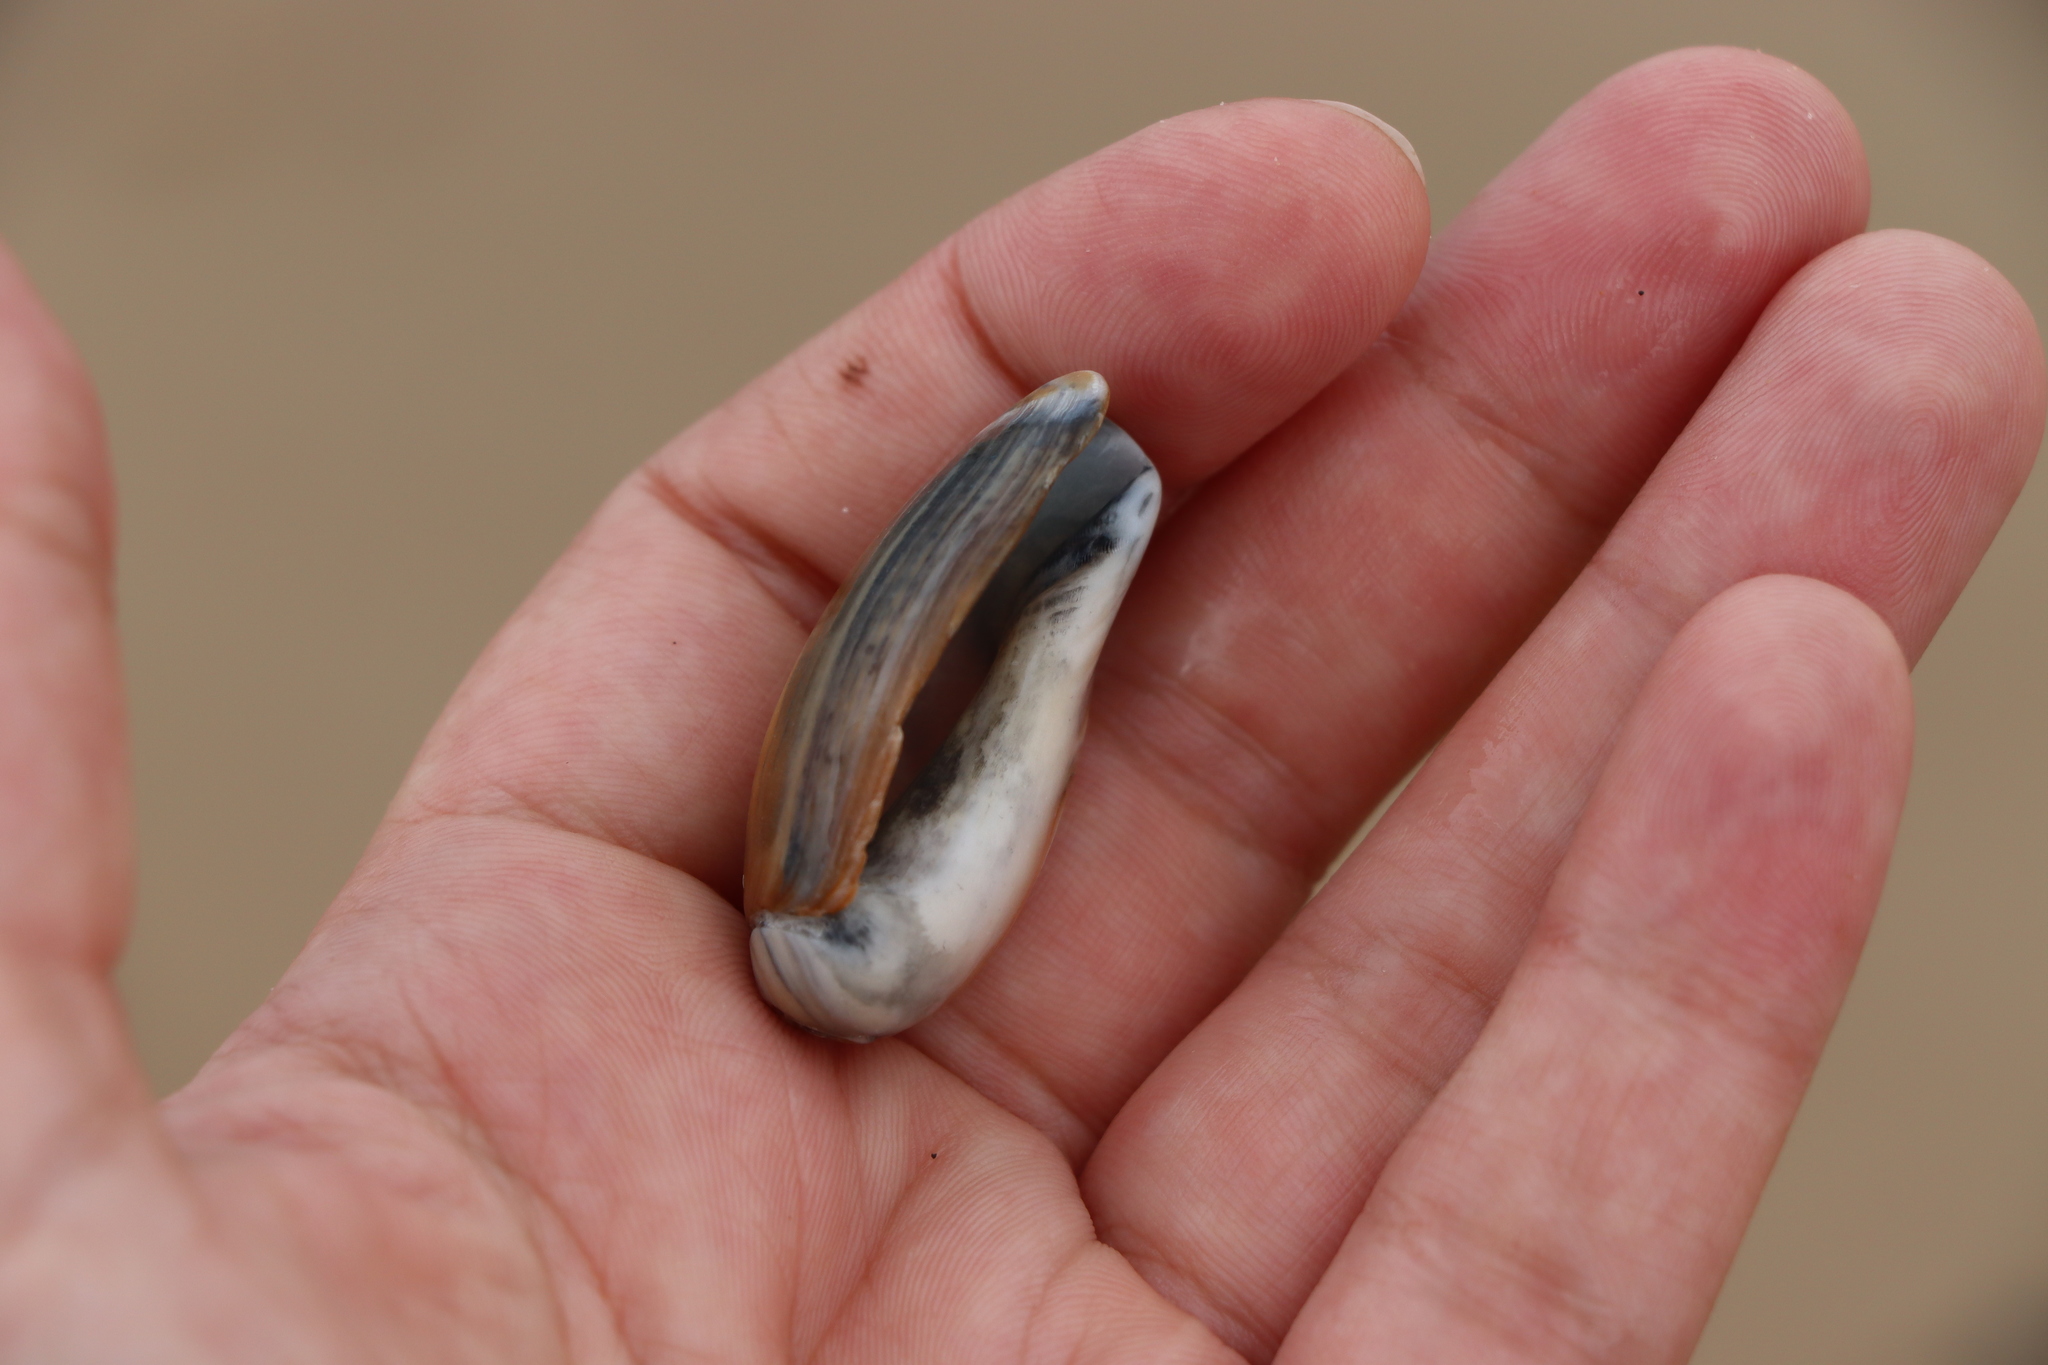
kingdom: Animalia
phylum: Mollusca
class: Gastropoda
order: Neogastropoda
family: Olividae
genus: Olivancillaria
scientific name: Olivancillaria carcellesi
